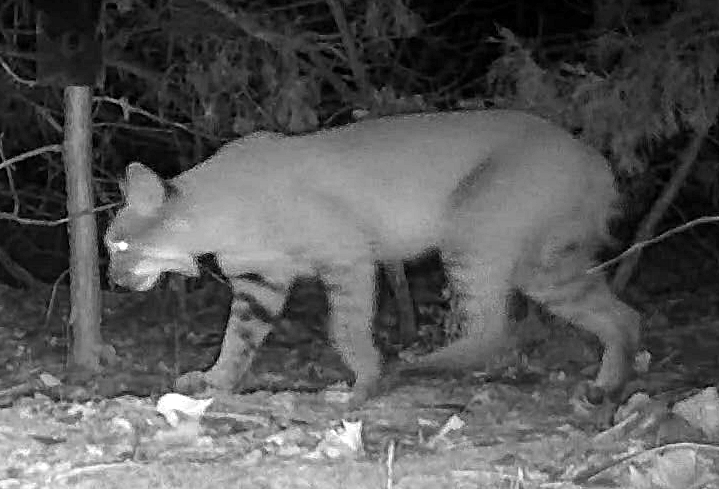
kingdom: Animalia
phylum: Chordata
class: Mammalia
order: Carnivora
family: Felidae
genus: Lynx
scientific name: Lynx rufus
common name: Bobcat
